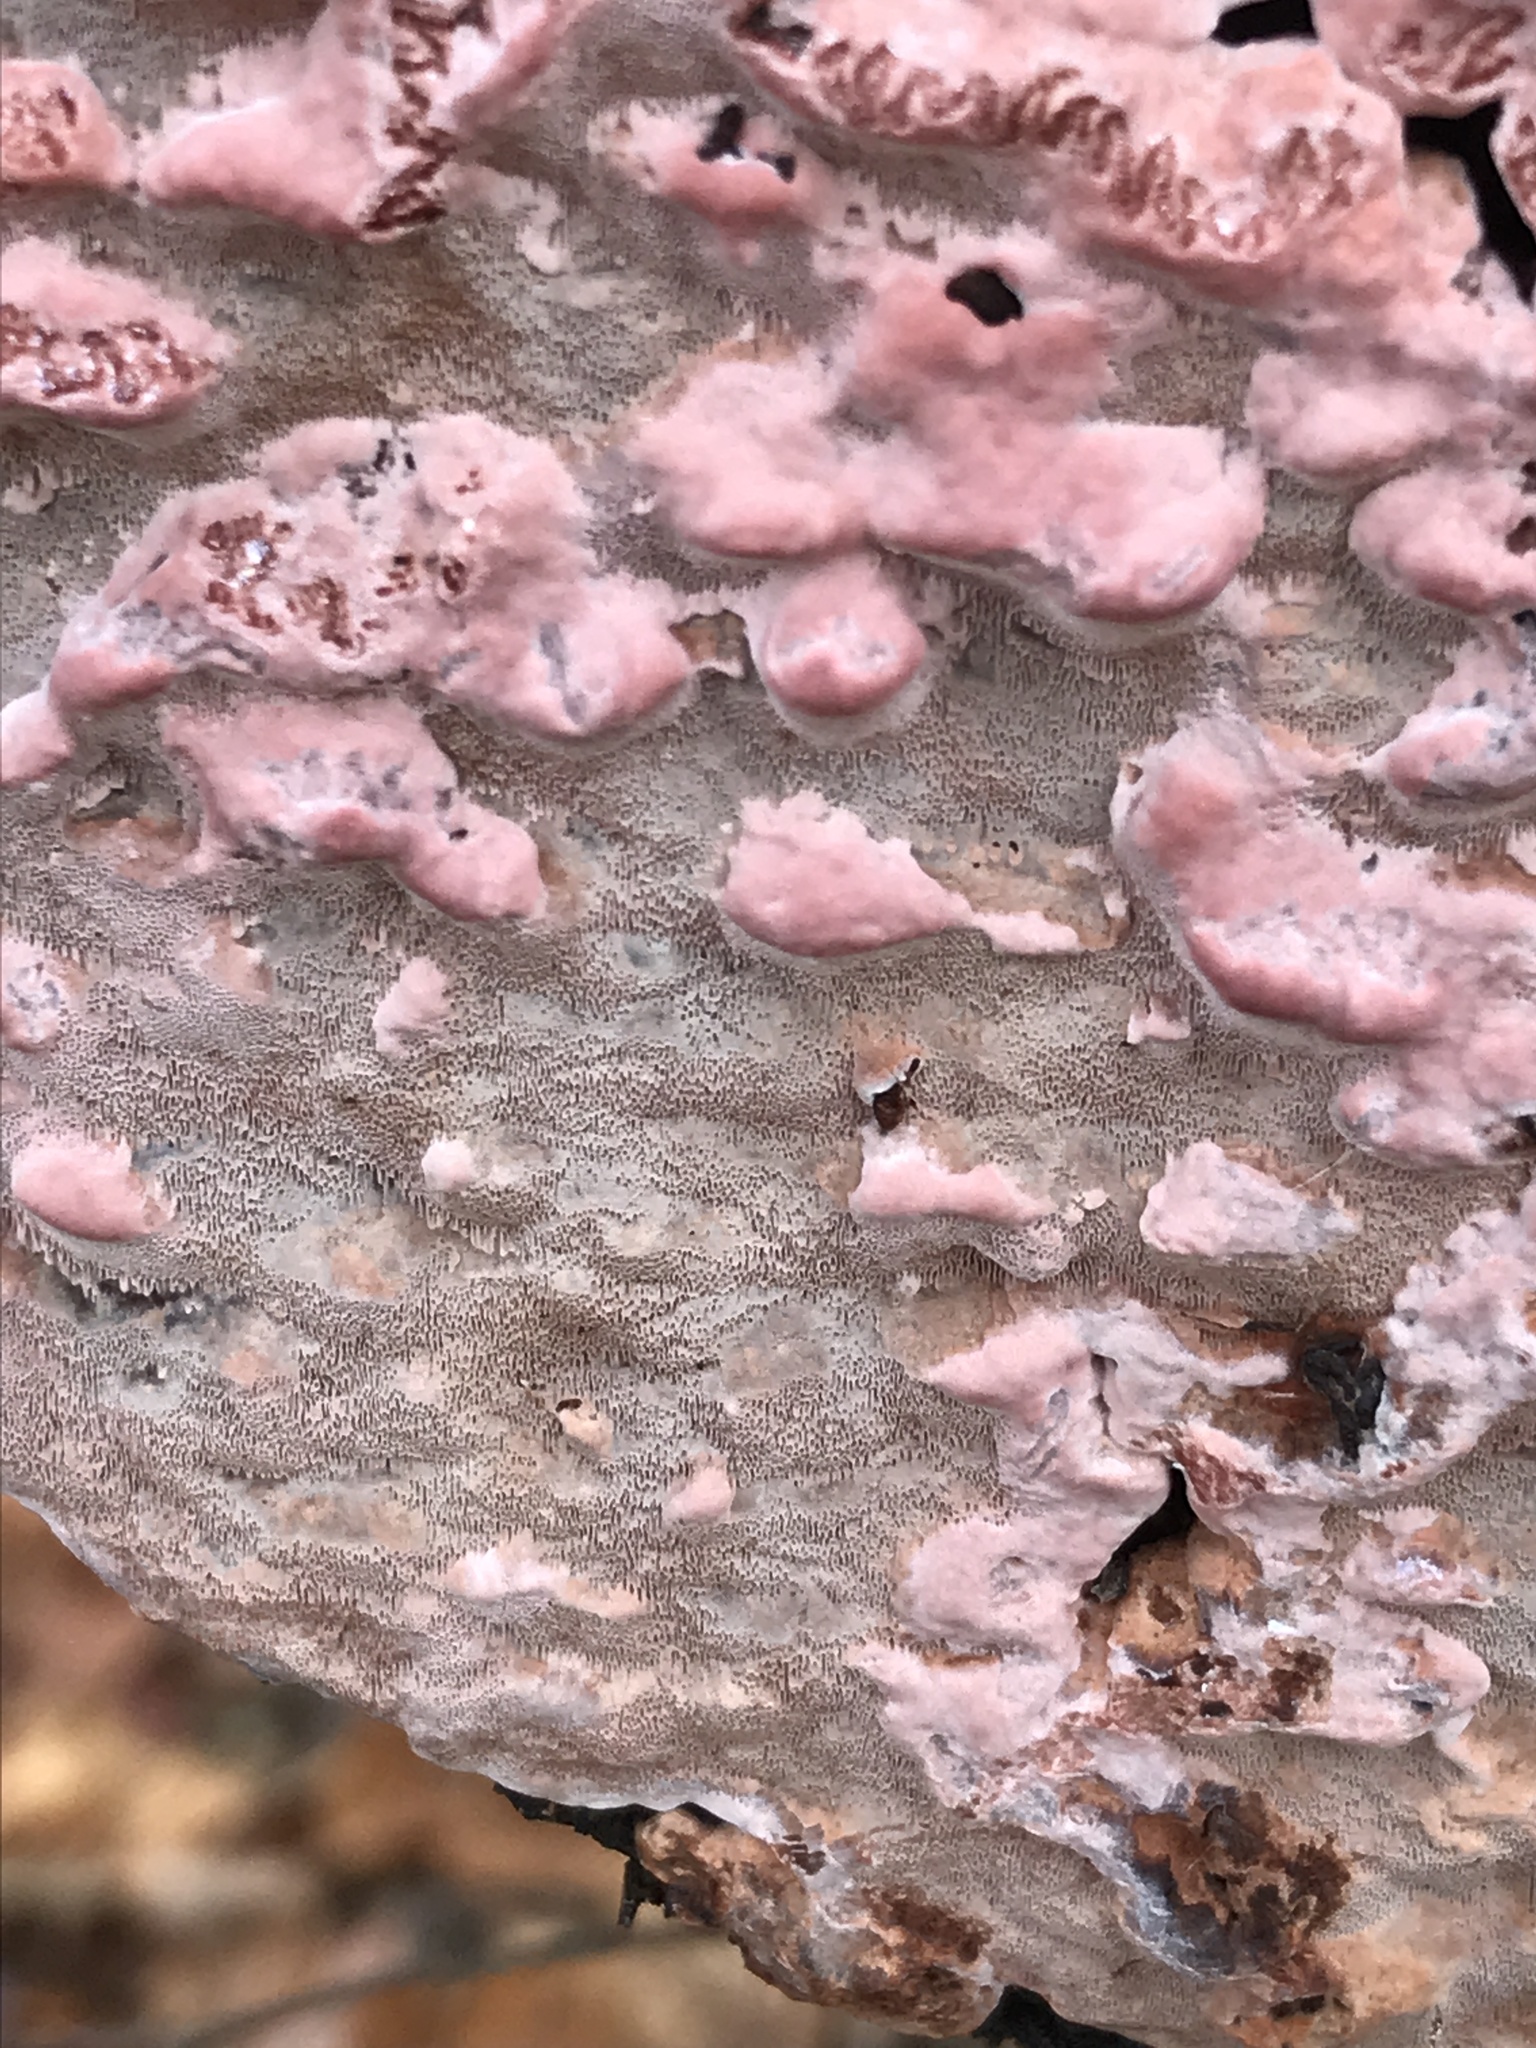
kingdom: Fungi
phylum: Basidiomycota
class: Agaricomycetes
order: Polyporales
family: Fomitopsidaceae
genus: Rhodofomes
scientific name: Rhodofomes cajanderi
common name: Rosy conk
